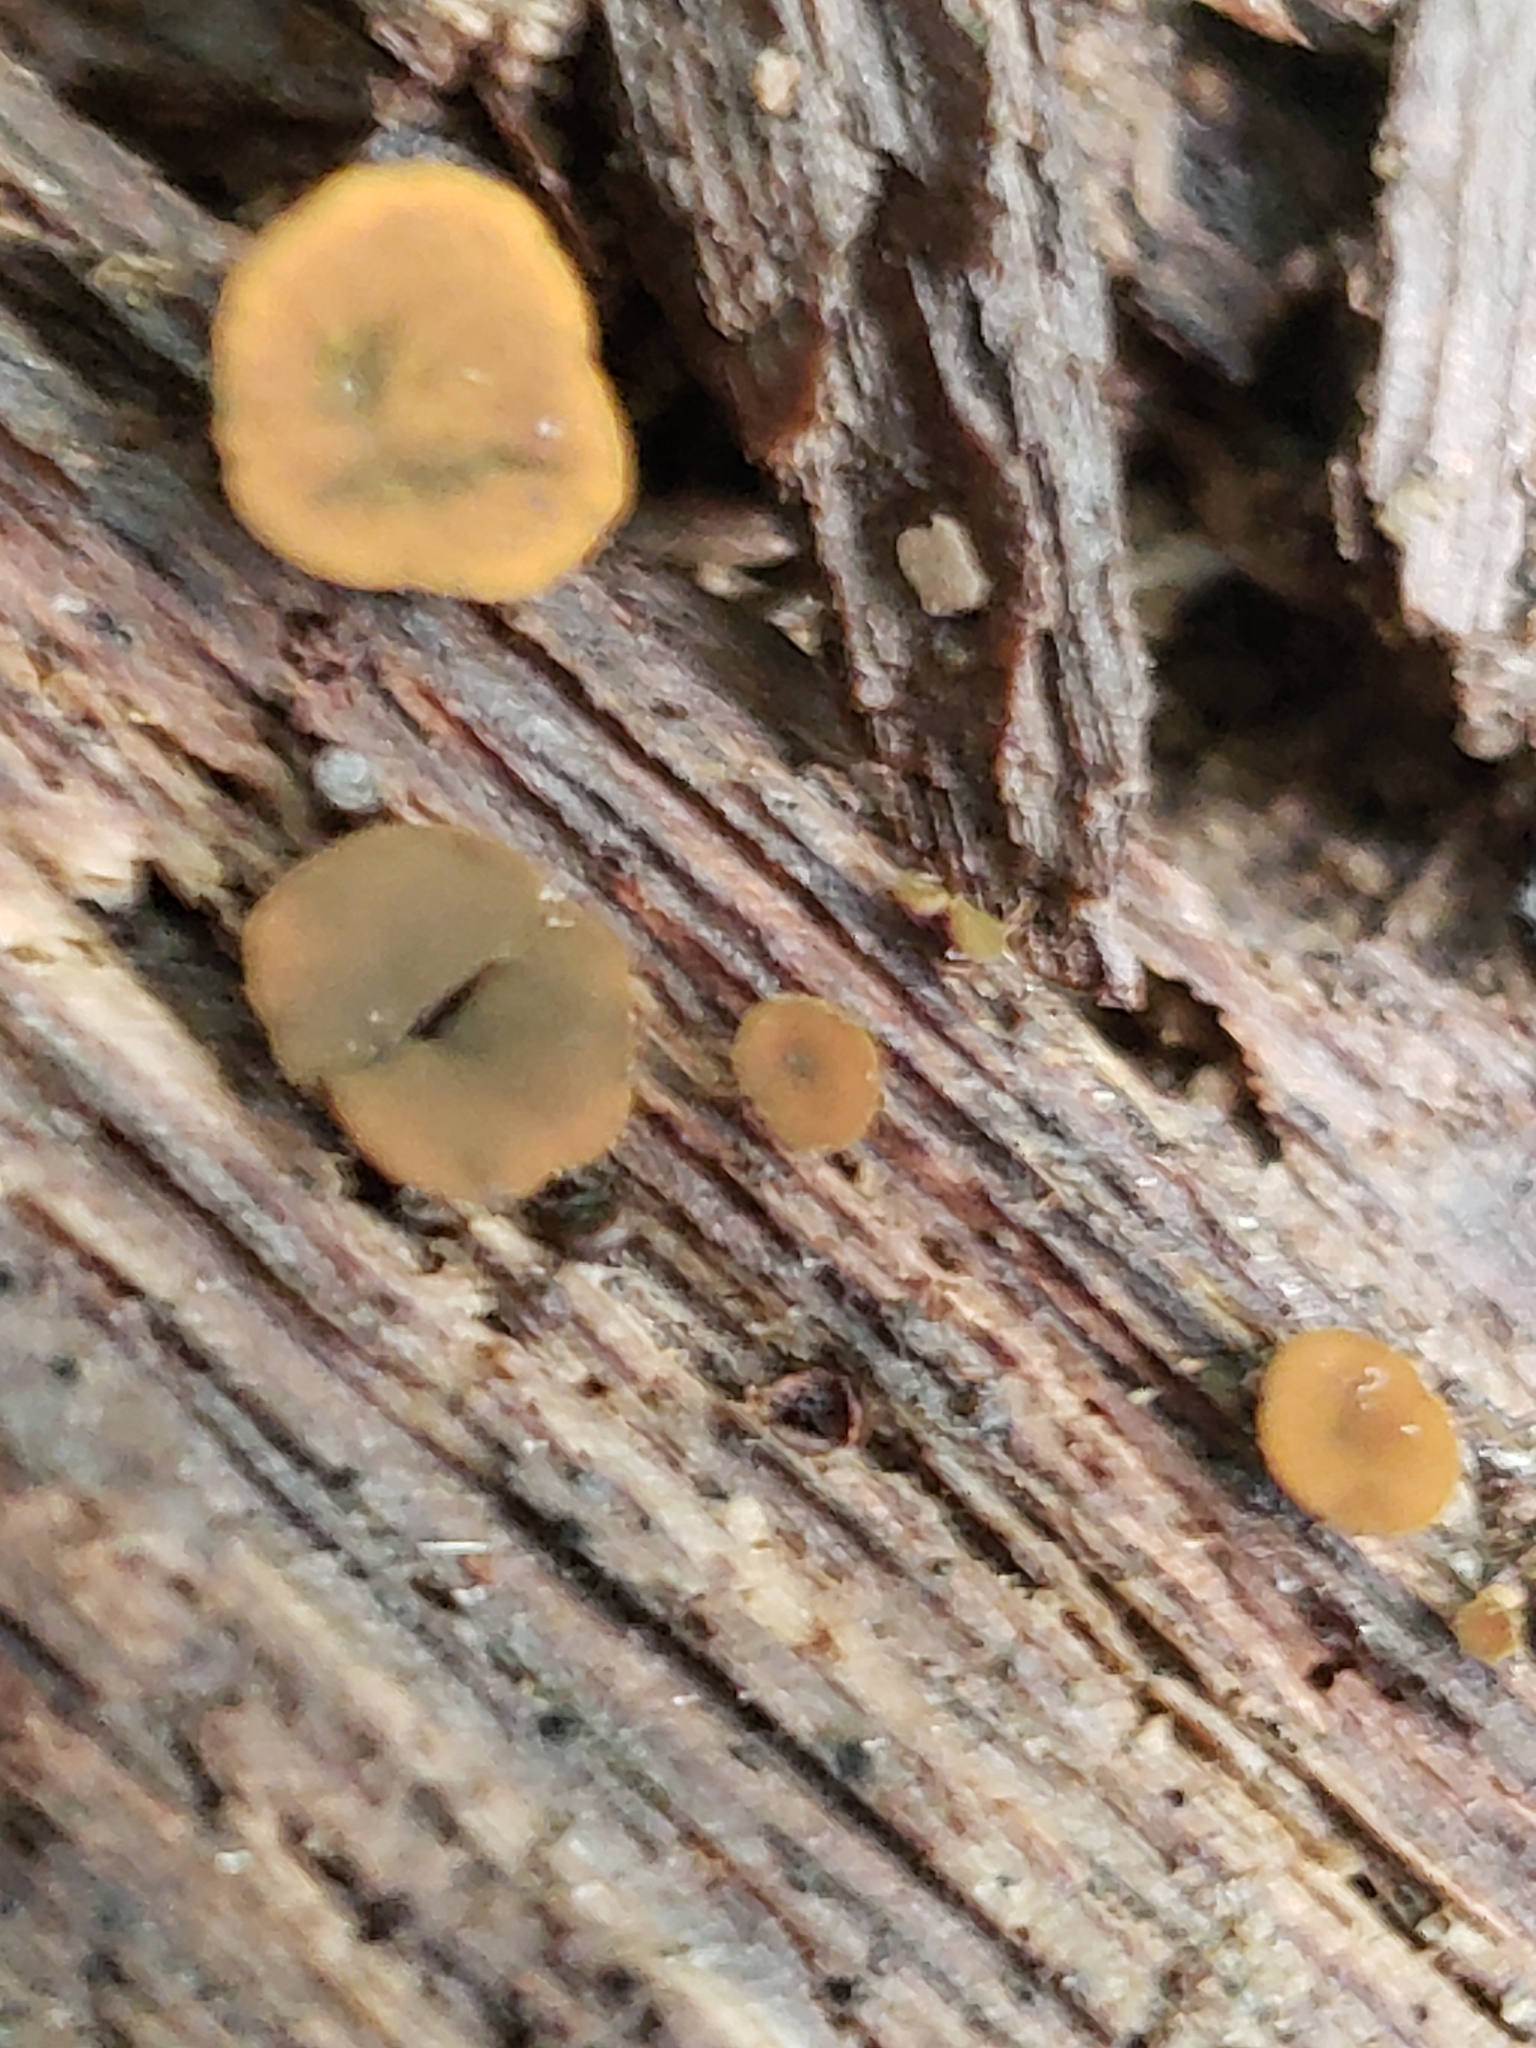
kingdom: Fungi
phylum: Ascomycota
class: Leotiomycetes
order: Helotiales
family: Cenangiaceae
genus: Chlorencoelia
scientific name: Chlorencoelia
